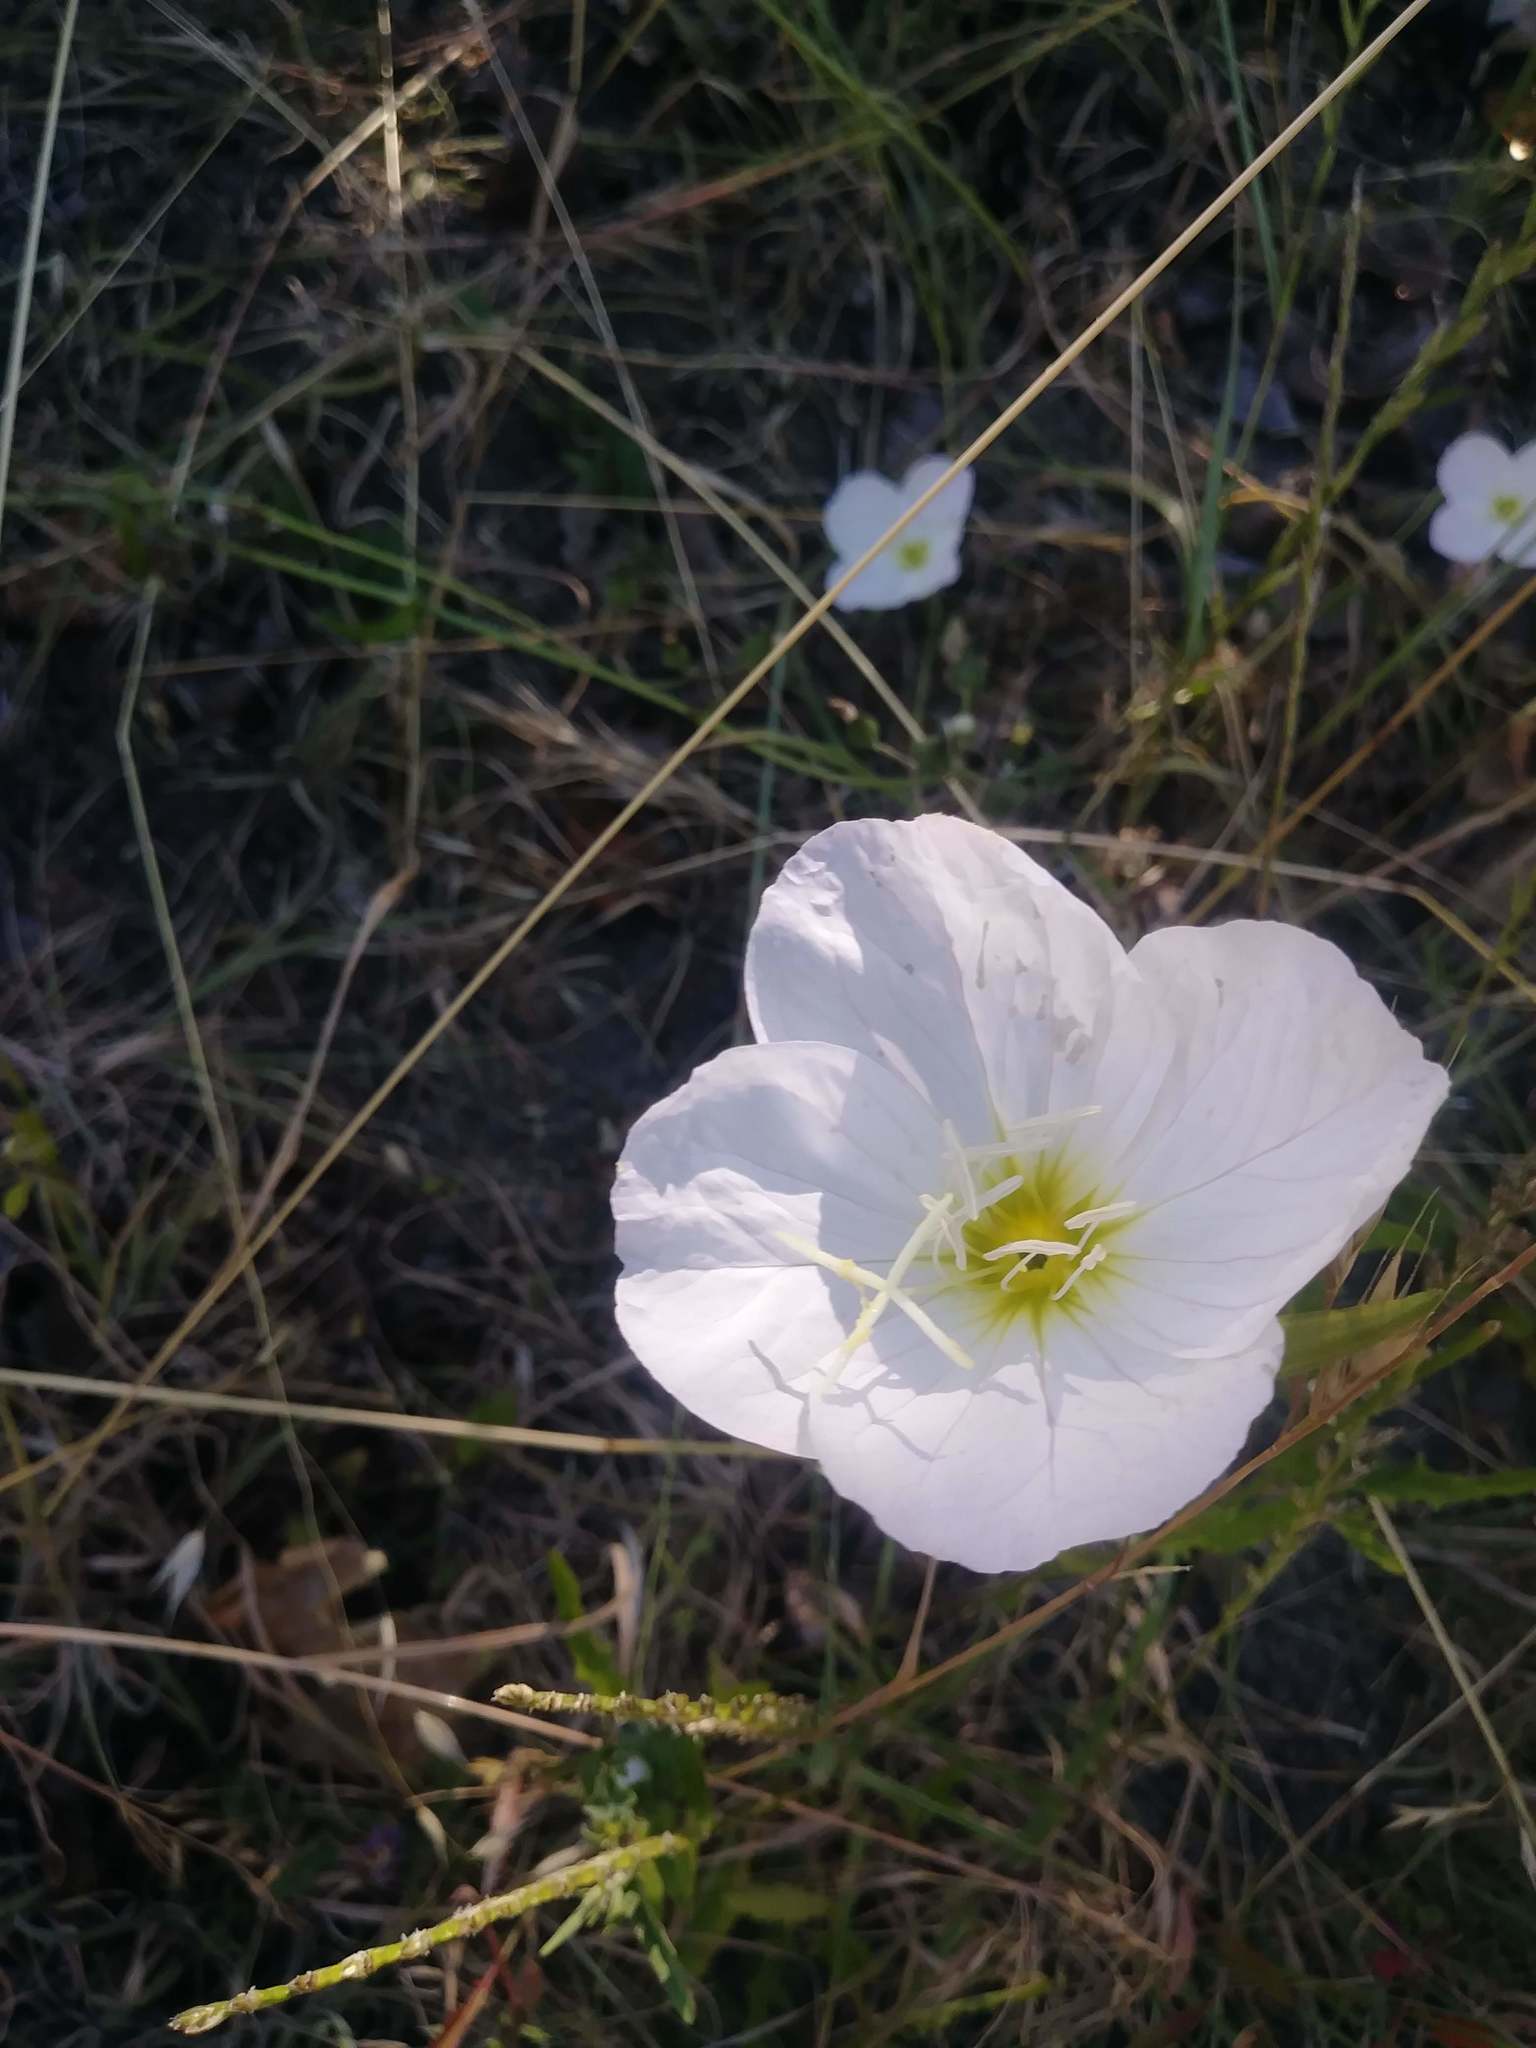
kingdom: Plantae
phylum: Tracheophyta
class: Magnoliopsida
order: Myrtales
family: Onagraceae
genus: Oenothera
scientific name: Oenothera speciosa
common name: White evening-primrose
